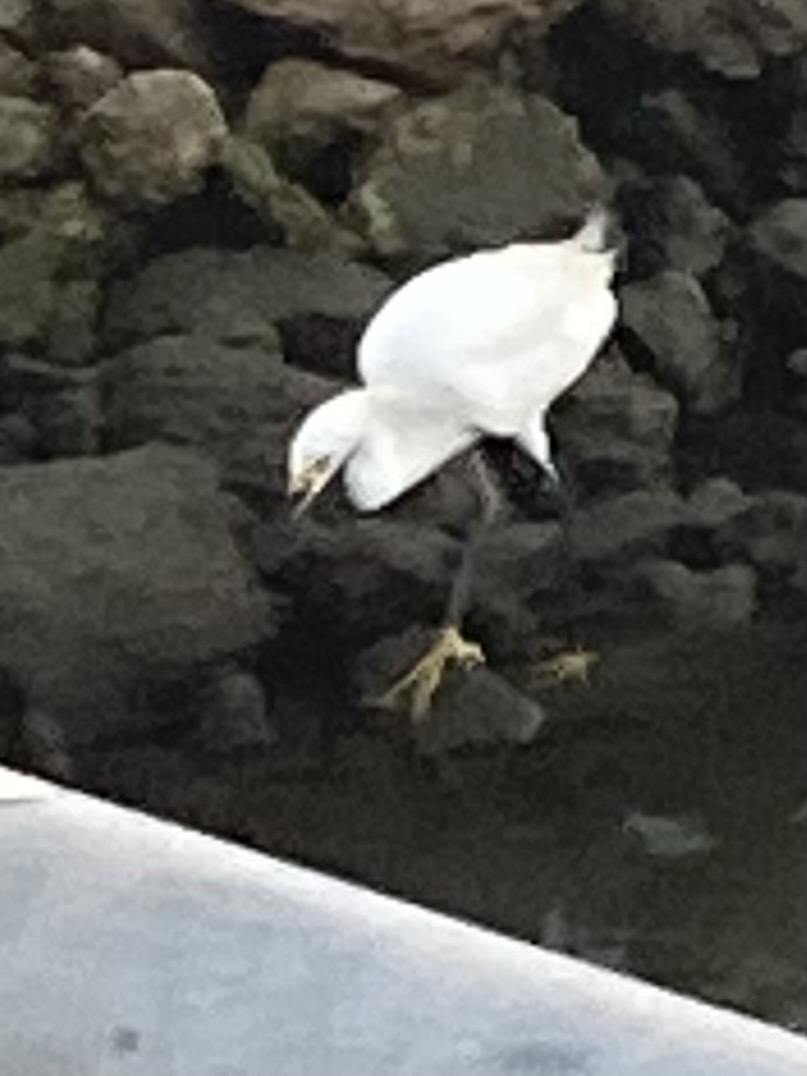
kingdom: Animalia
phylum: Chordata
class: Aves
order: Pelecaniformes
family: Ardeidae
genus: Egretta
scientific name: Egretta thula
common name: Snowy egret
